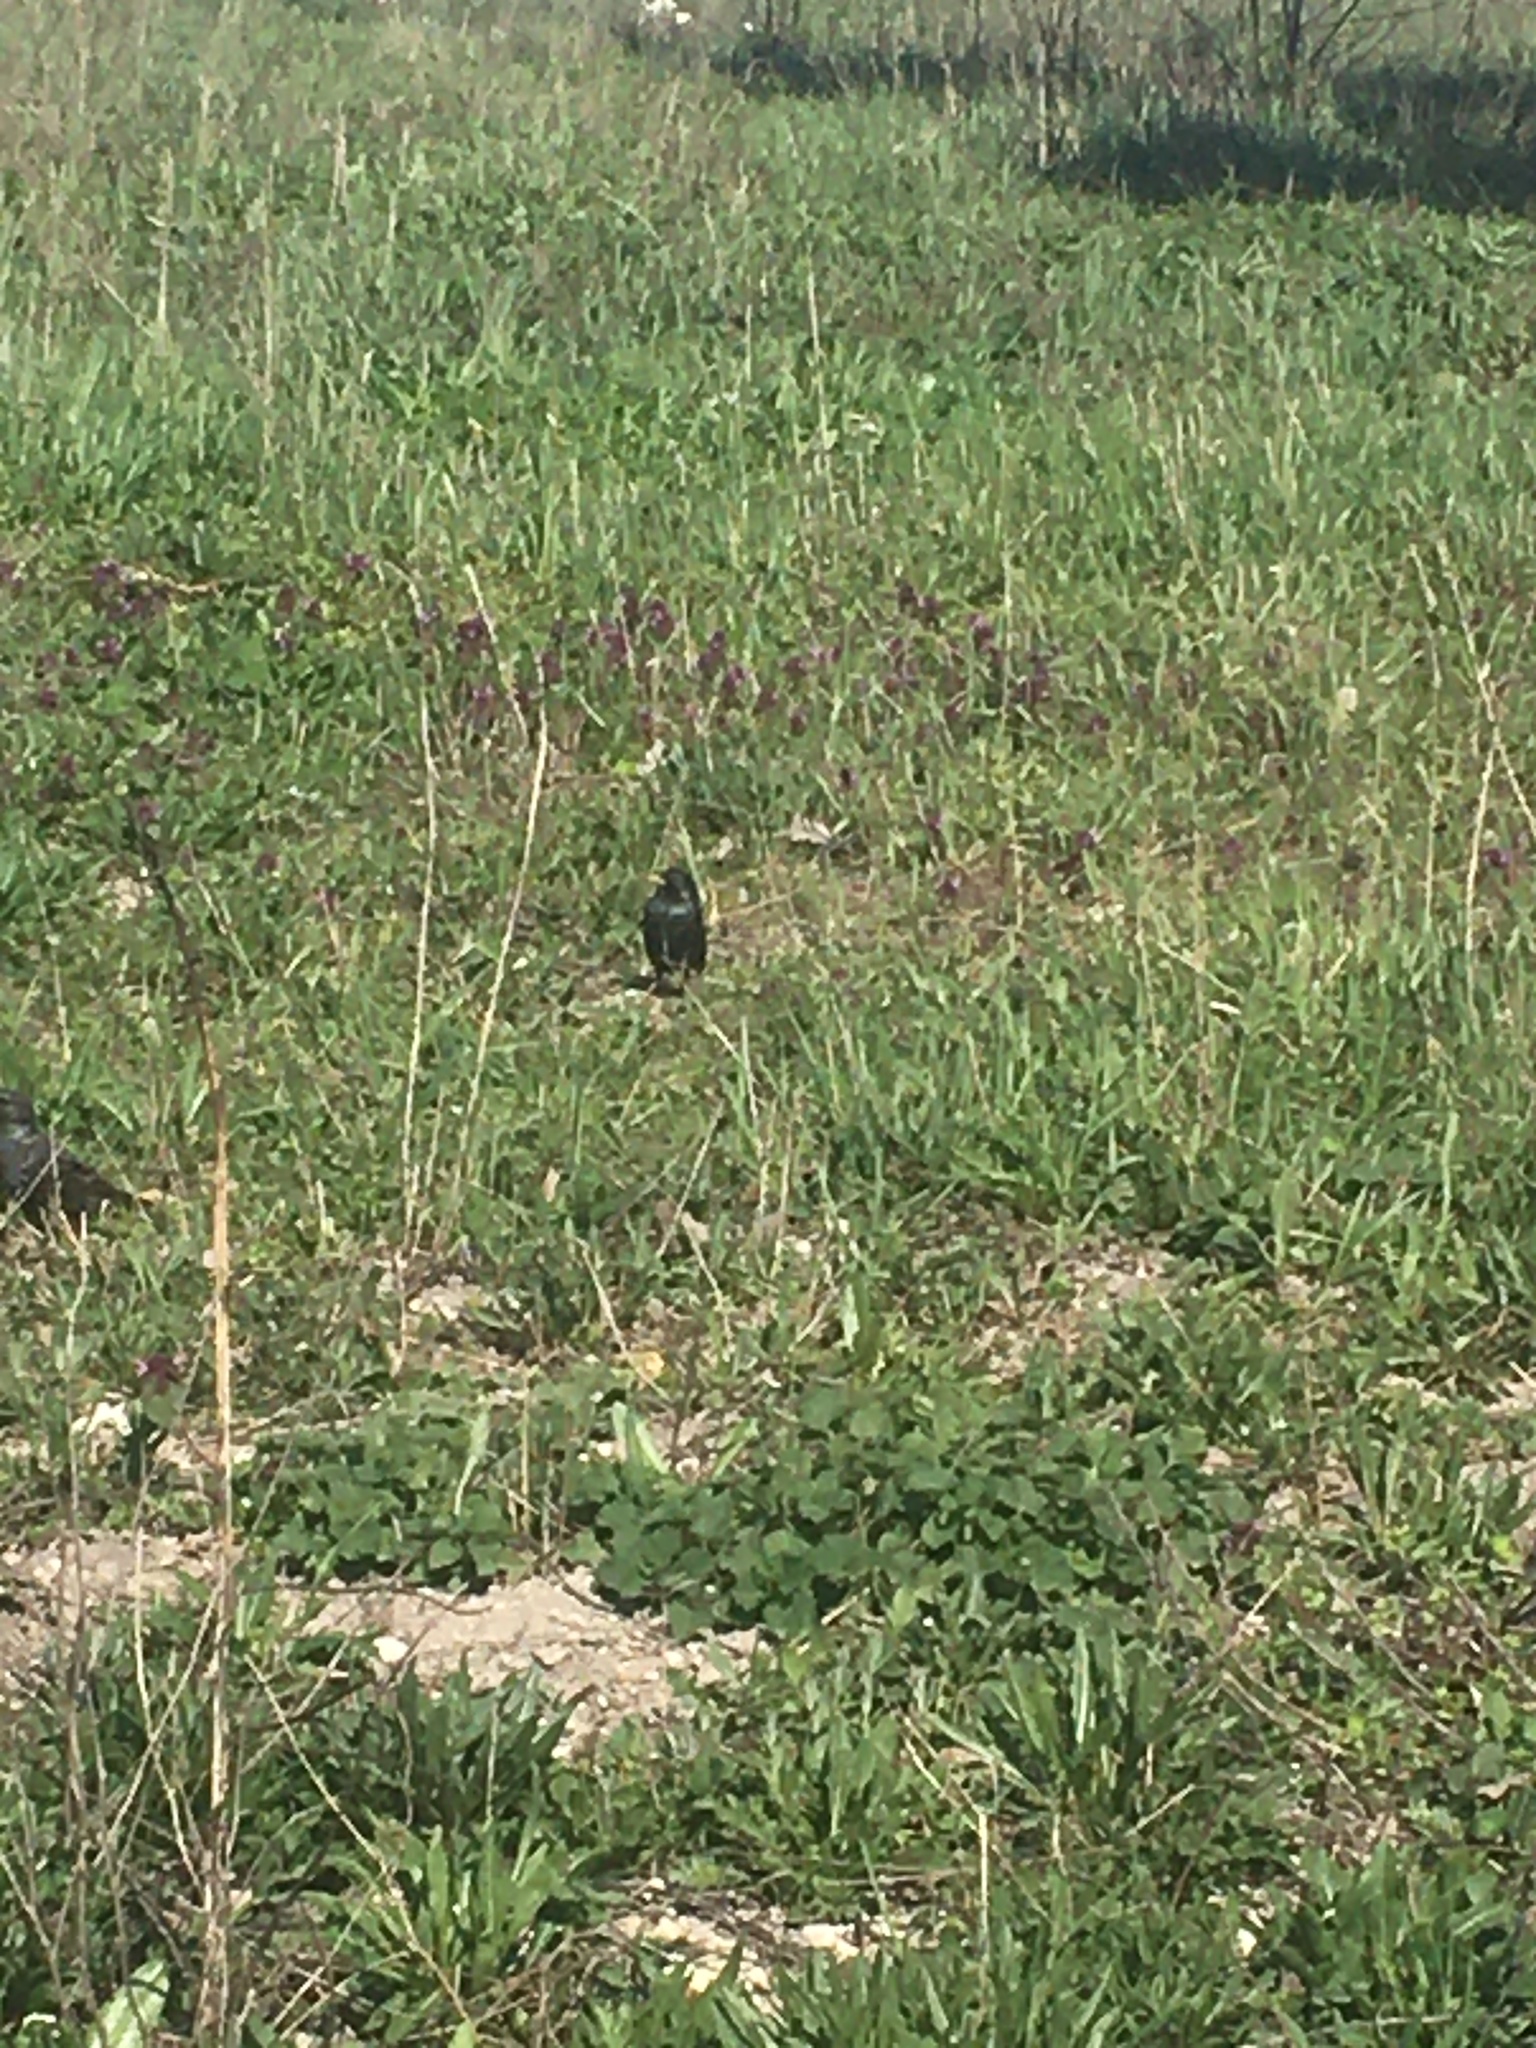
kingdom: Animalia
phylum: Chordata
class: Aves
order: Passeriformes
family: Sturnidae
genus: Sturnus
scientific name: Sturnus vulgaris
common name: Common starling
